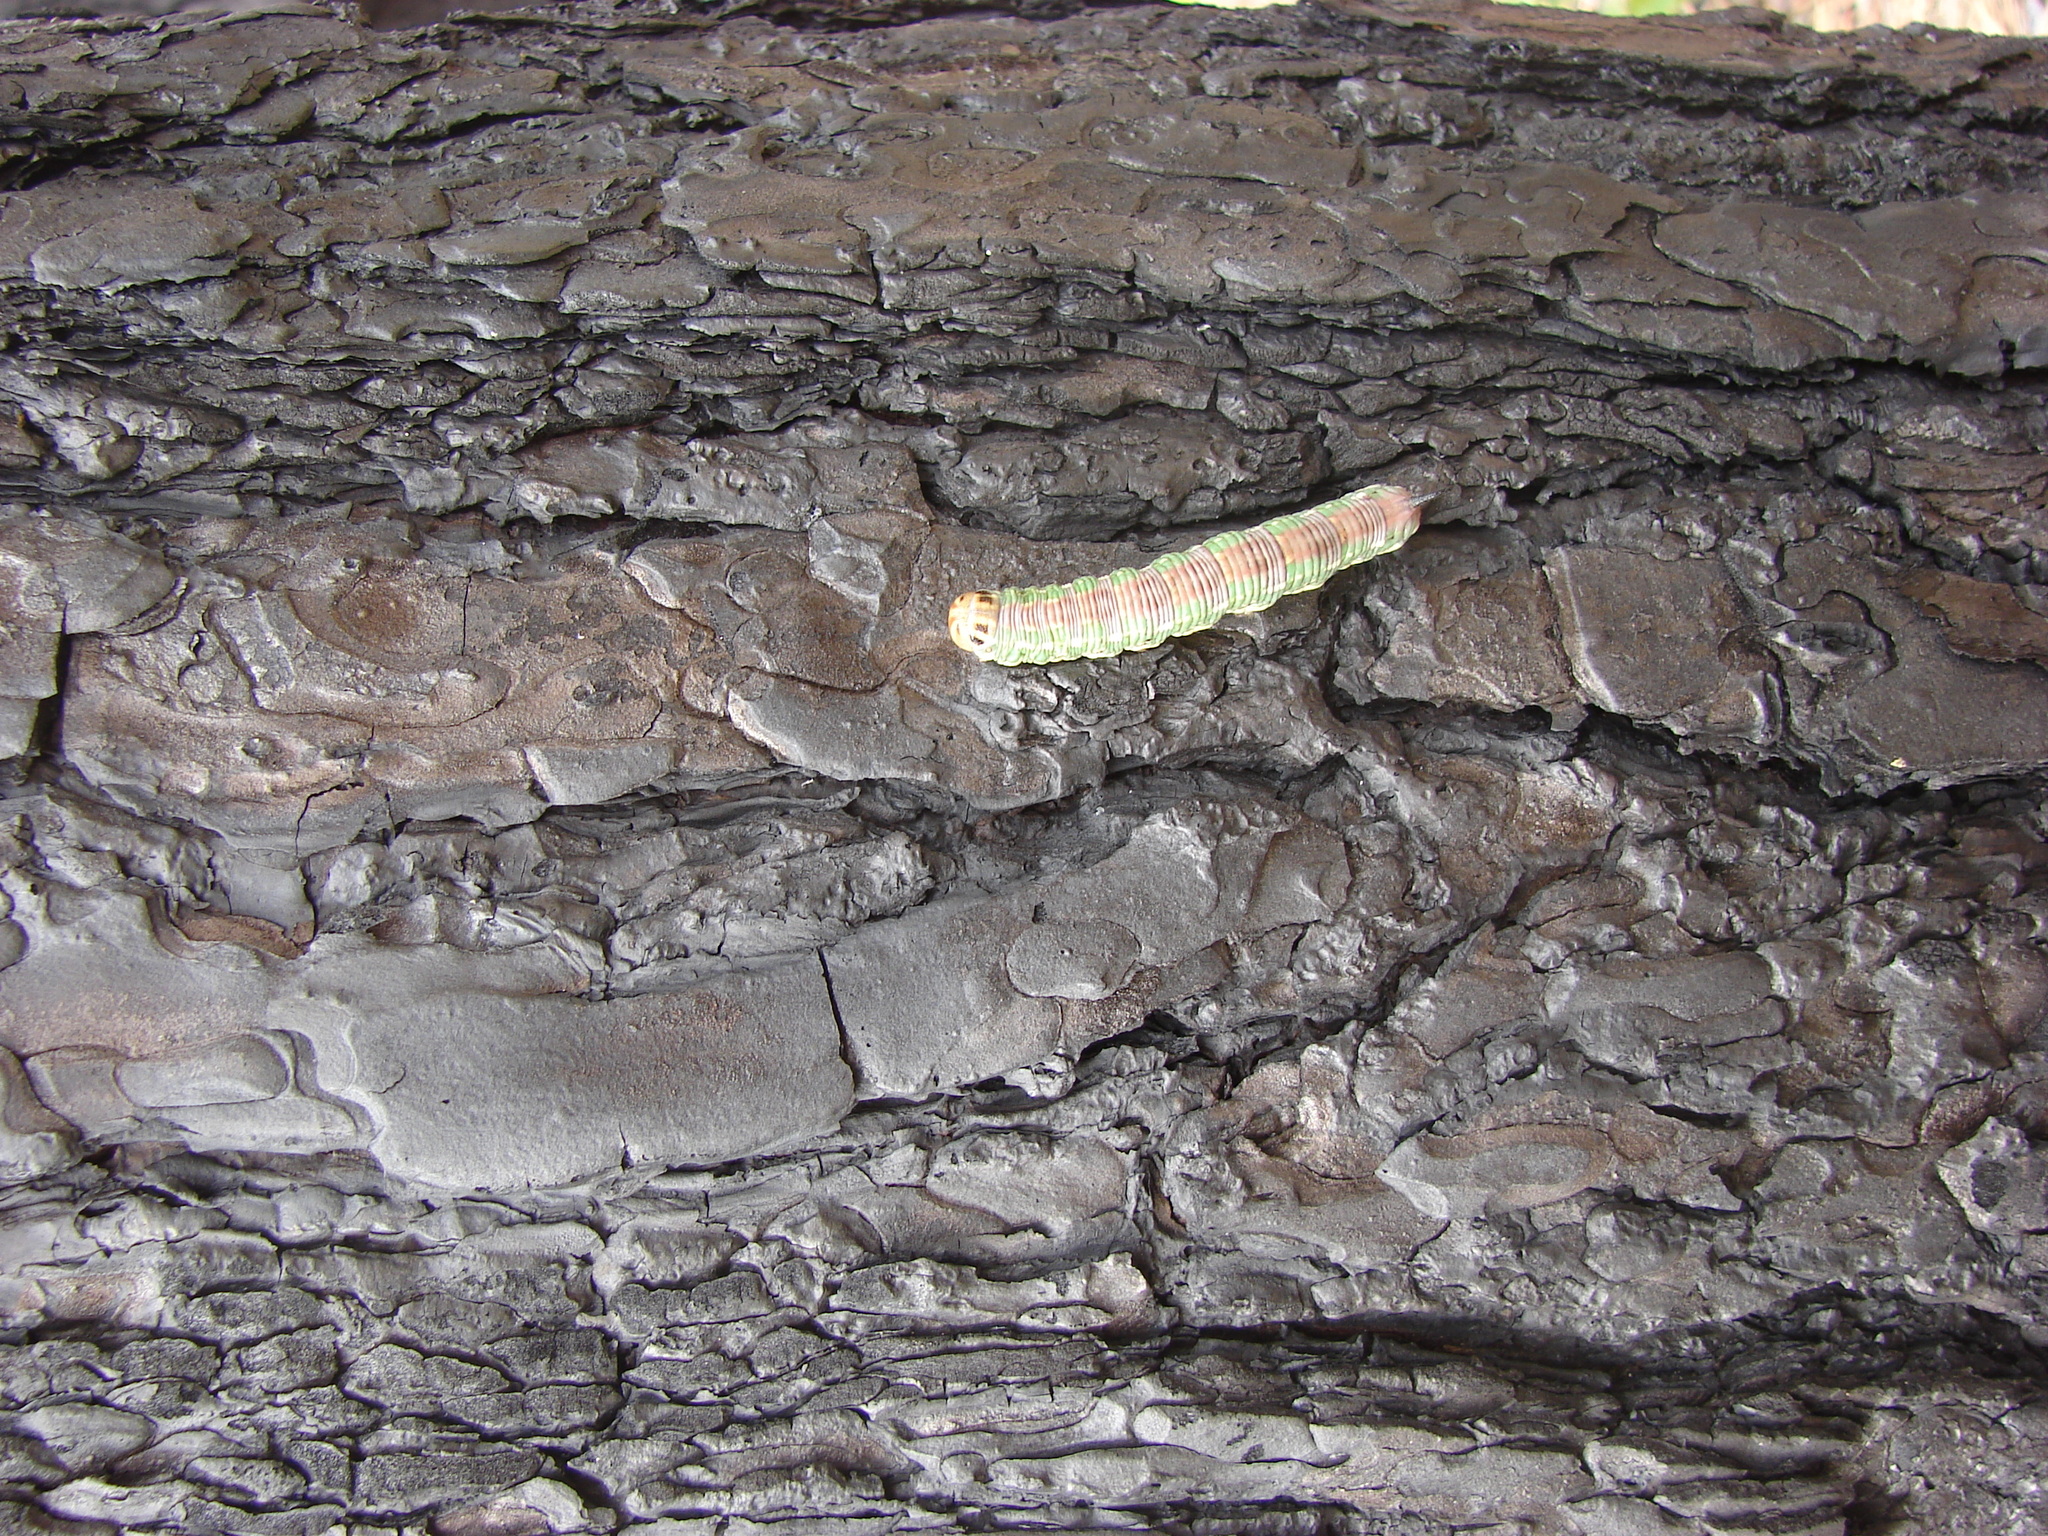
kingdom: Animalia
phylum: Arthropoda
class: Insecta
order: Lepidoptera
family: Sphingidae
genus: Sphinx
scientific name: Sphinx pinastri
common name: Pine hawk-moth
